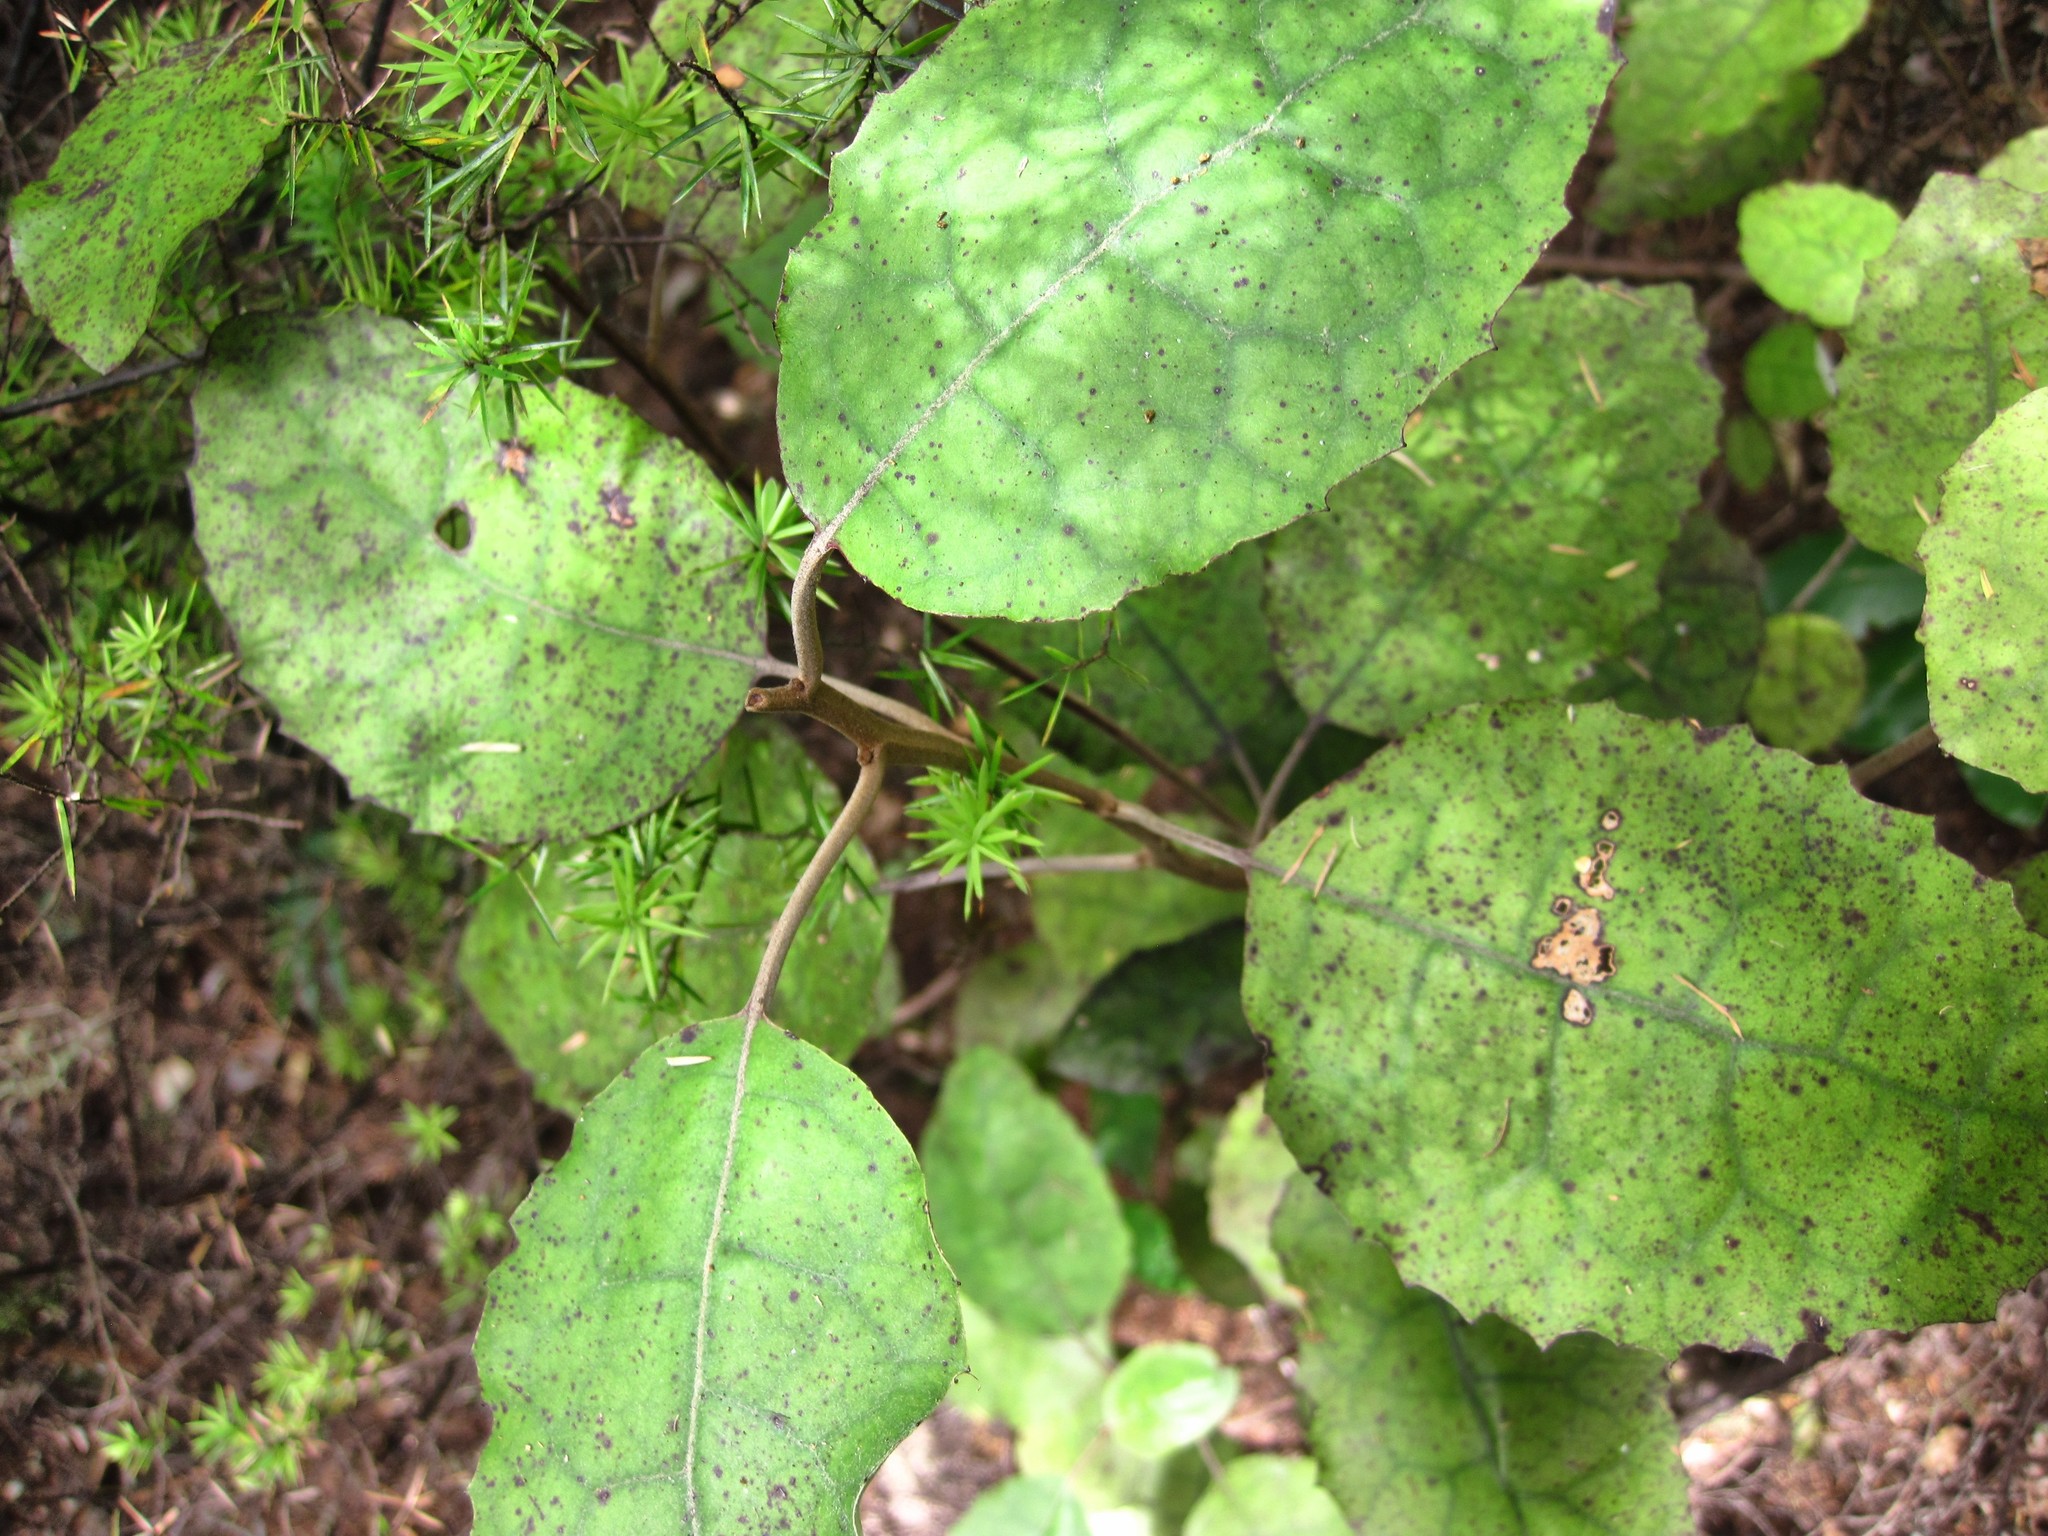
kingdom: Plantae
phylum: Tracheophyta
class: Magnoliopsida
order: Asterales
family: Asteraceae
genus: Olearia
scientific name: Olearia rani
